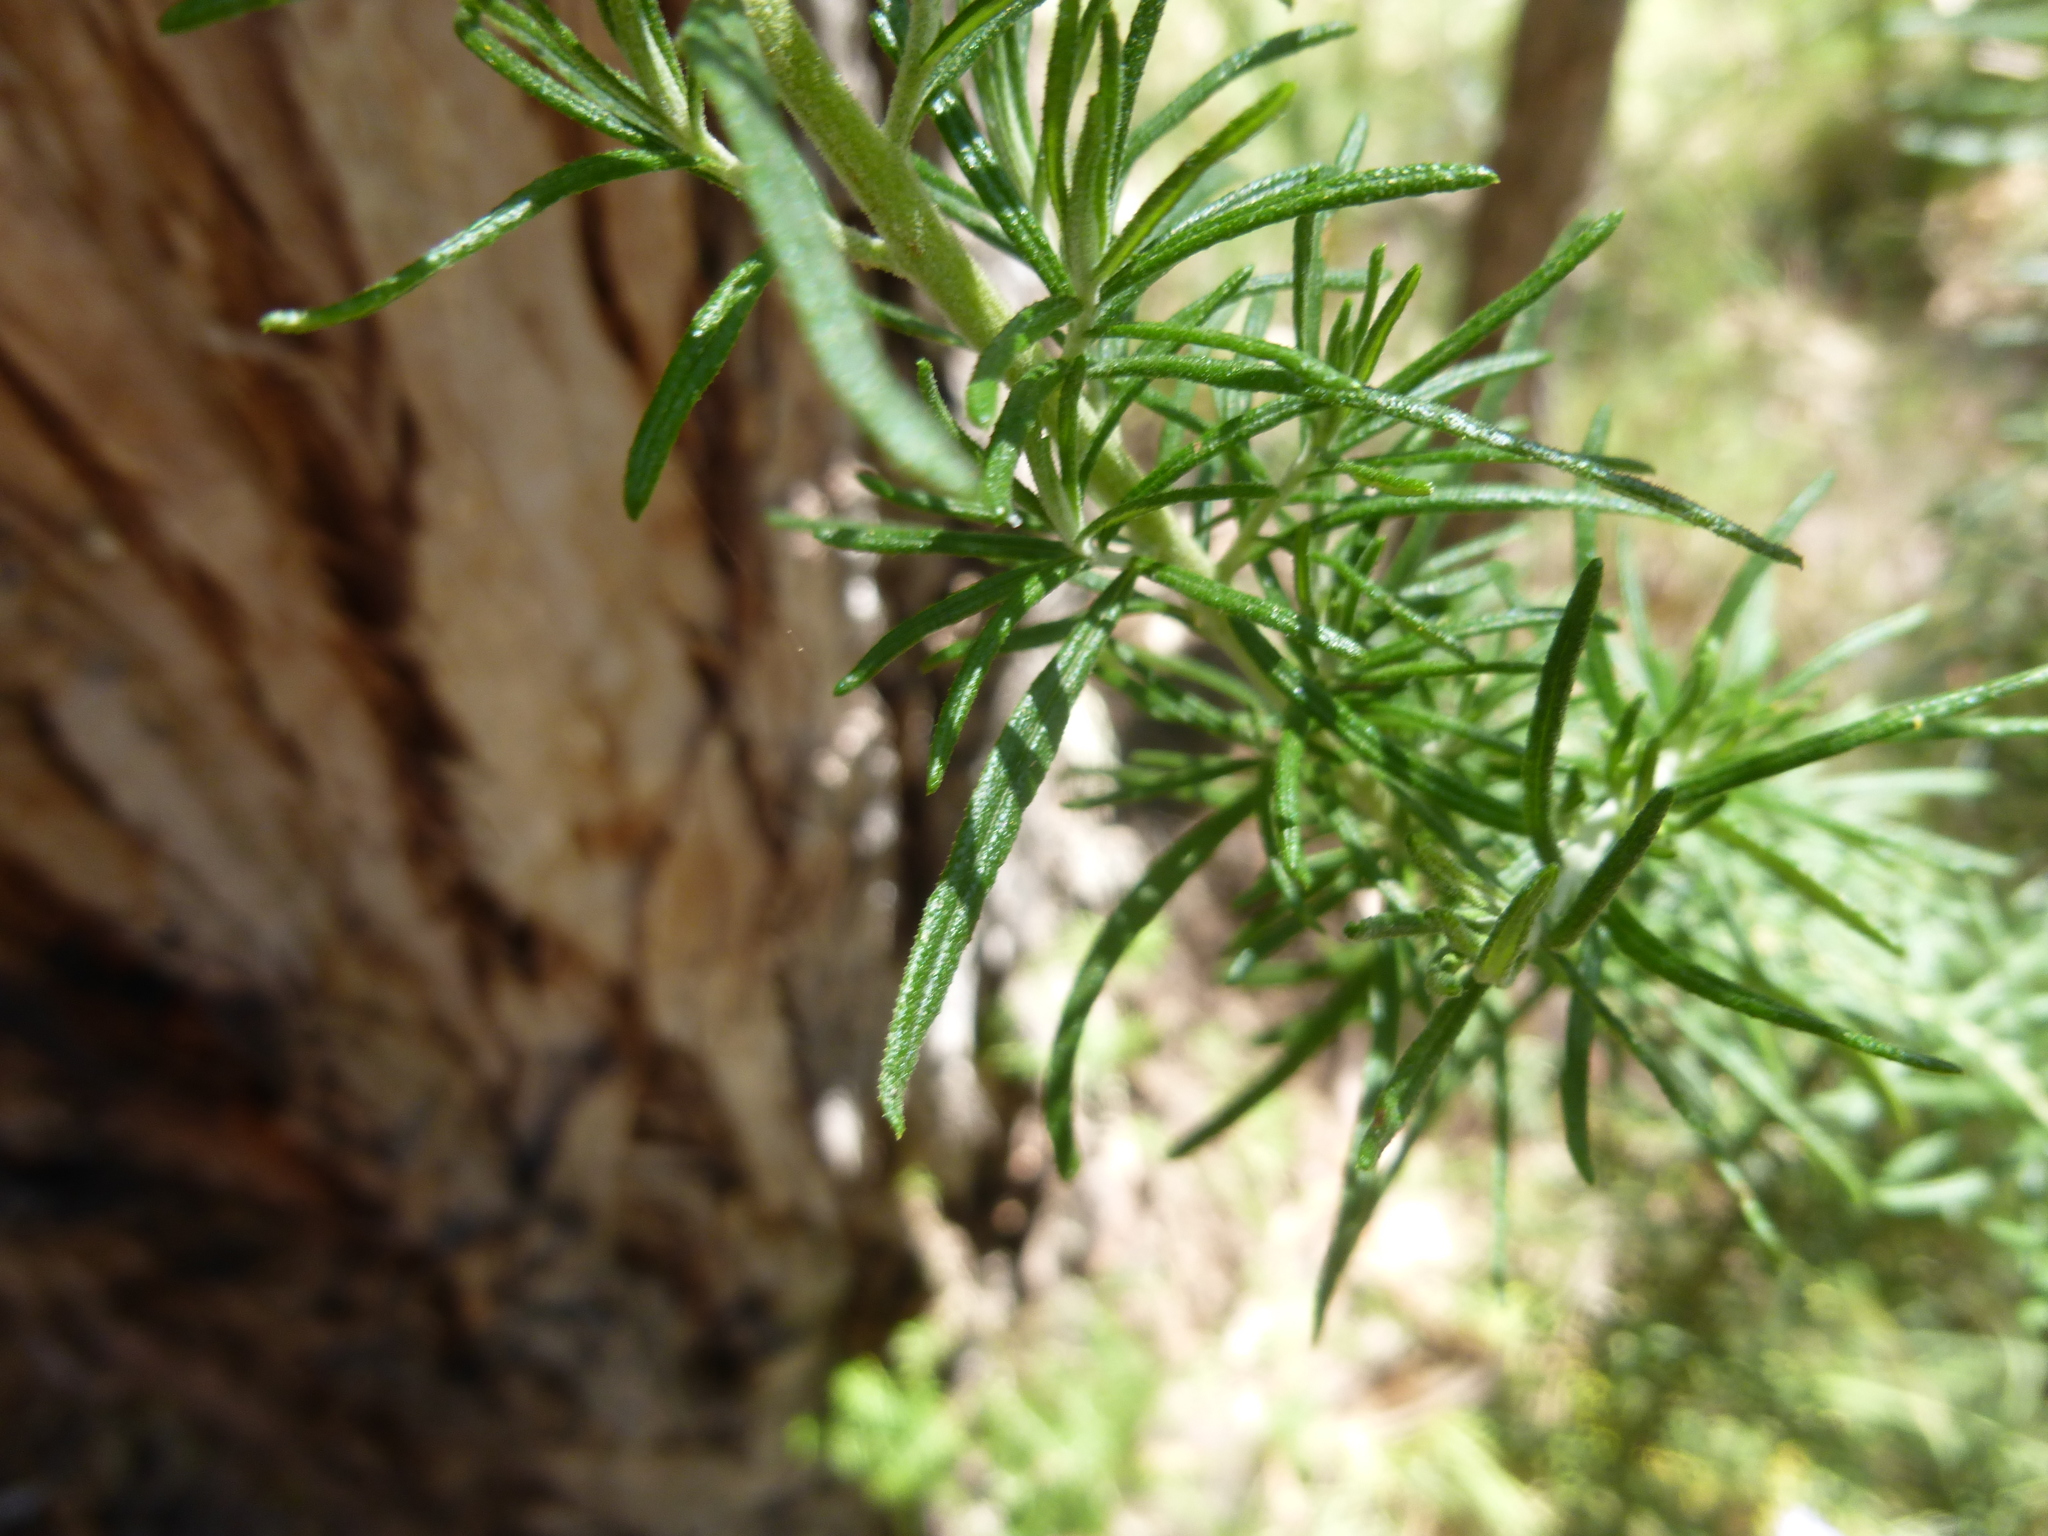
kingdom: Plantae
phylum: Tracheophyta
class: Magnoliopsida
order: Asterales
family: Asteraceae
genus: Cassinia
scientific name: Cassinia longifolia
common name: Longleaf-dogwood
